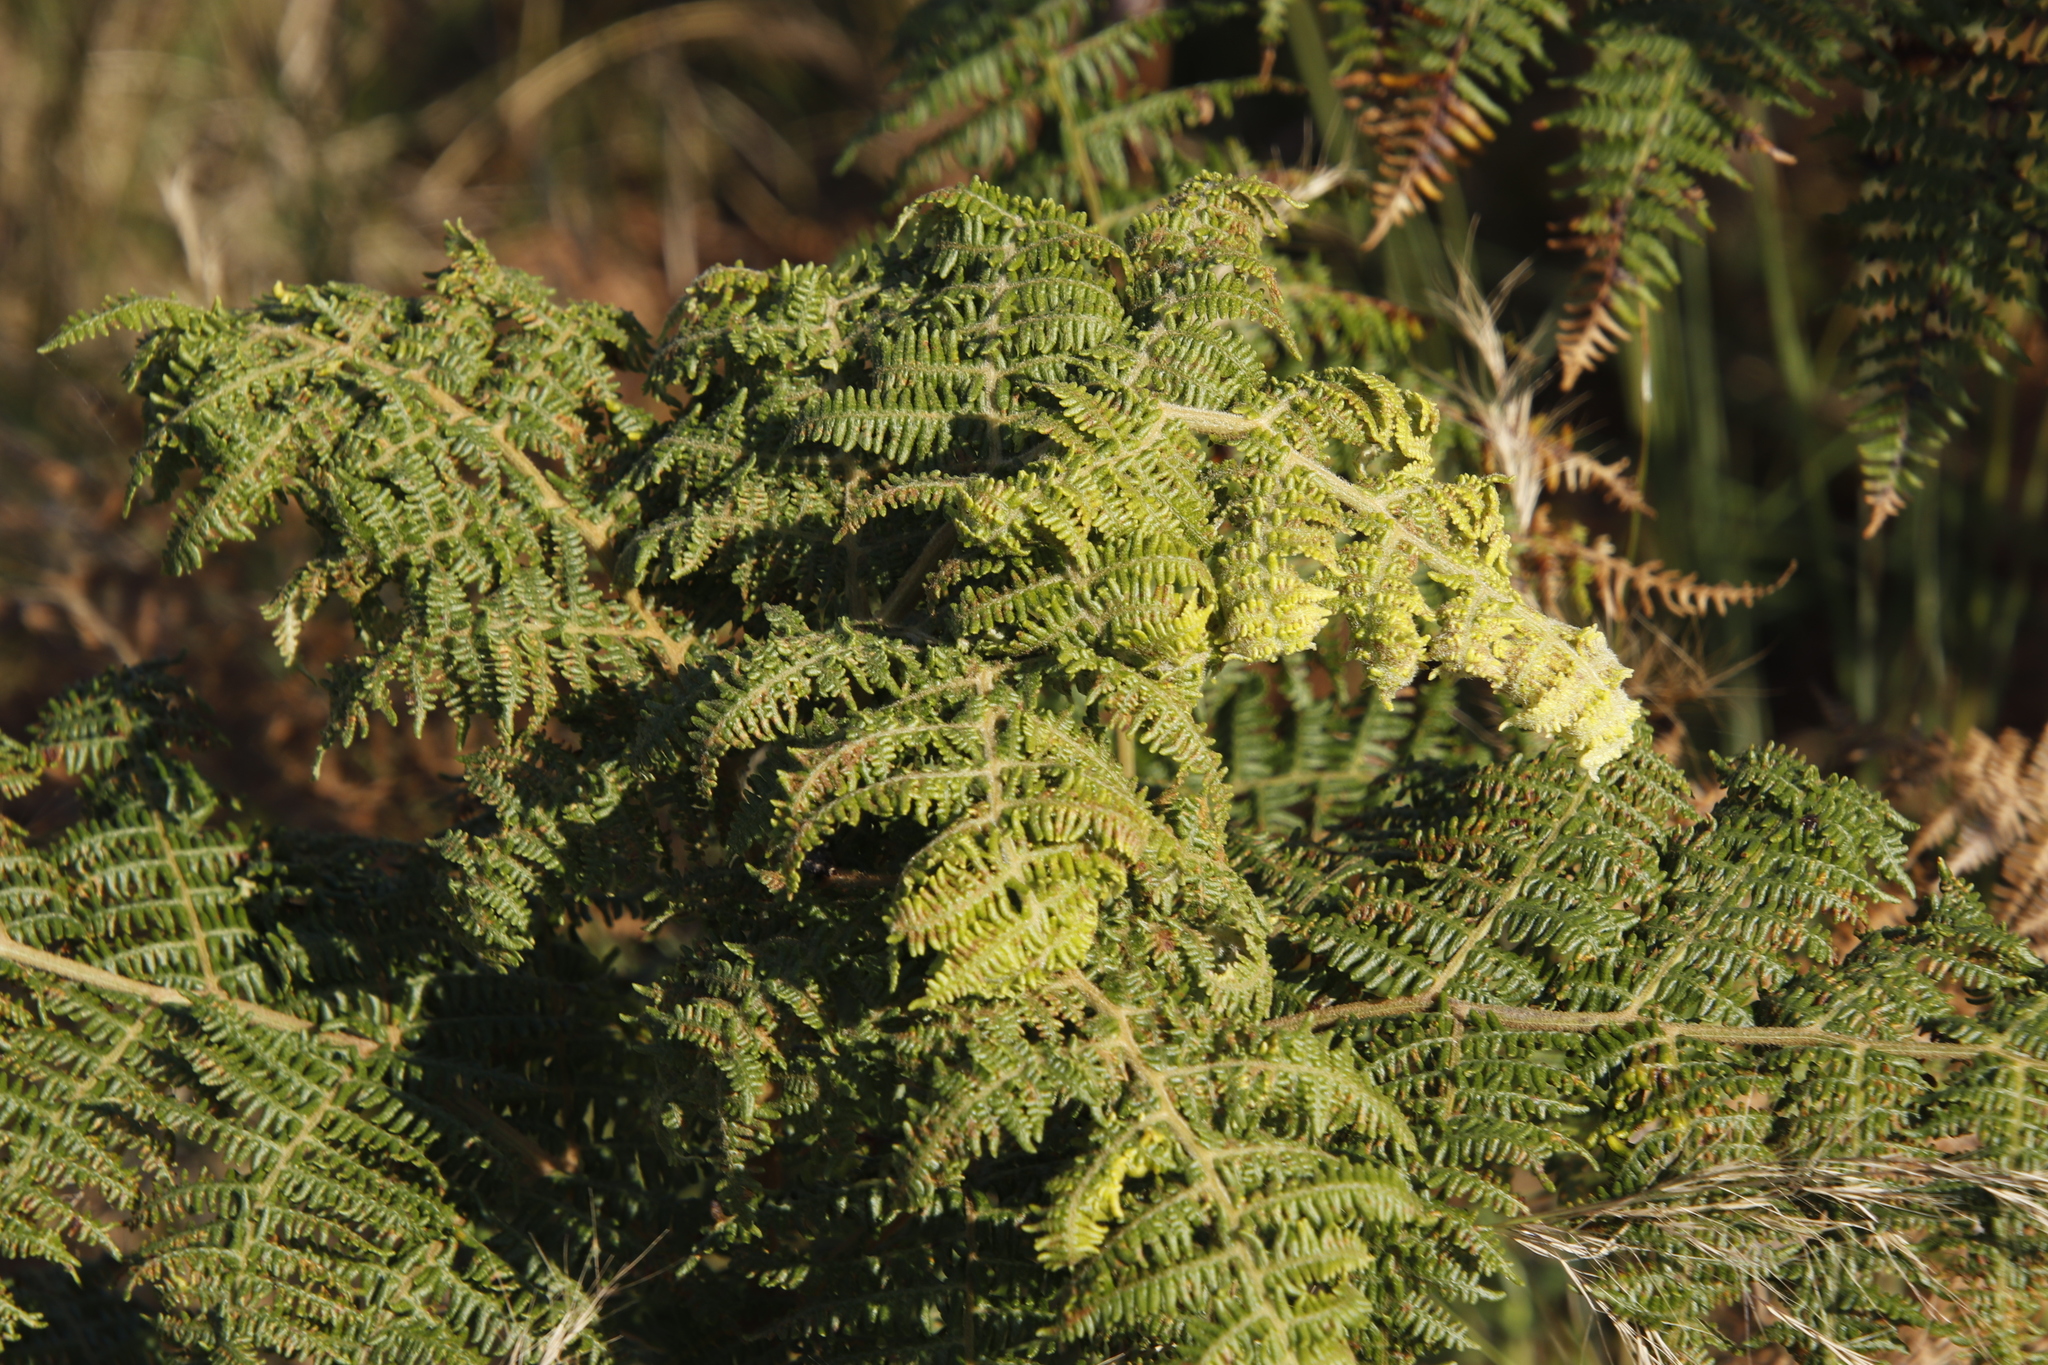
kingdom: Plantae
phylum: Tracheophyta
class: Polypodiopsida
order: Polypodiales
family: Dennstaedtiaceae
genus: Pteridium
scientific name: Pteridium aquilinum
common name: Bracken
